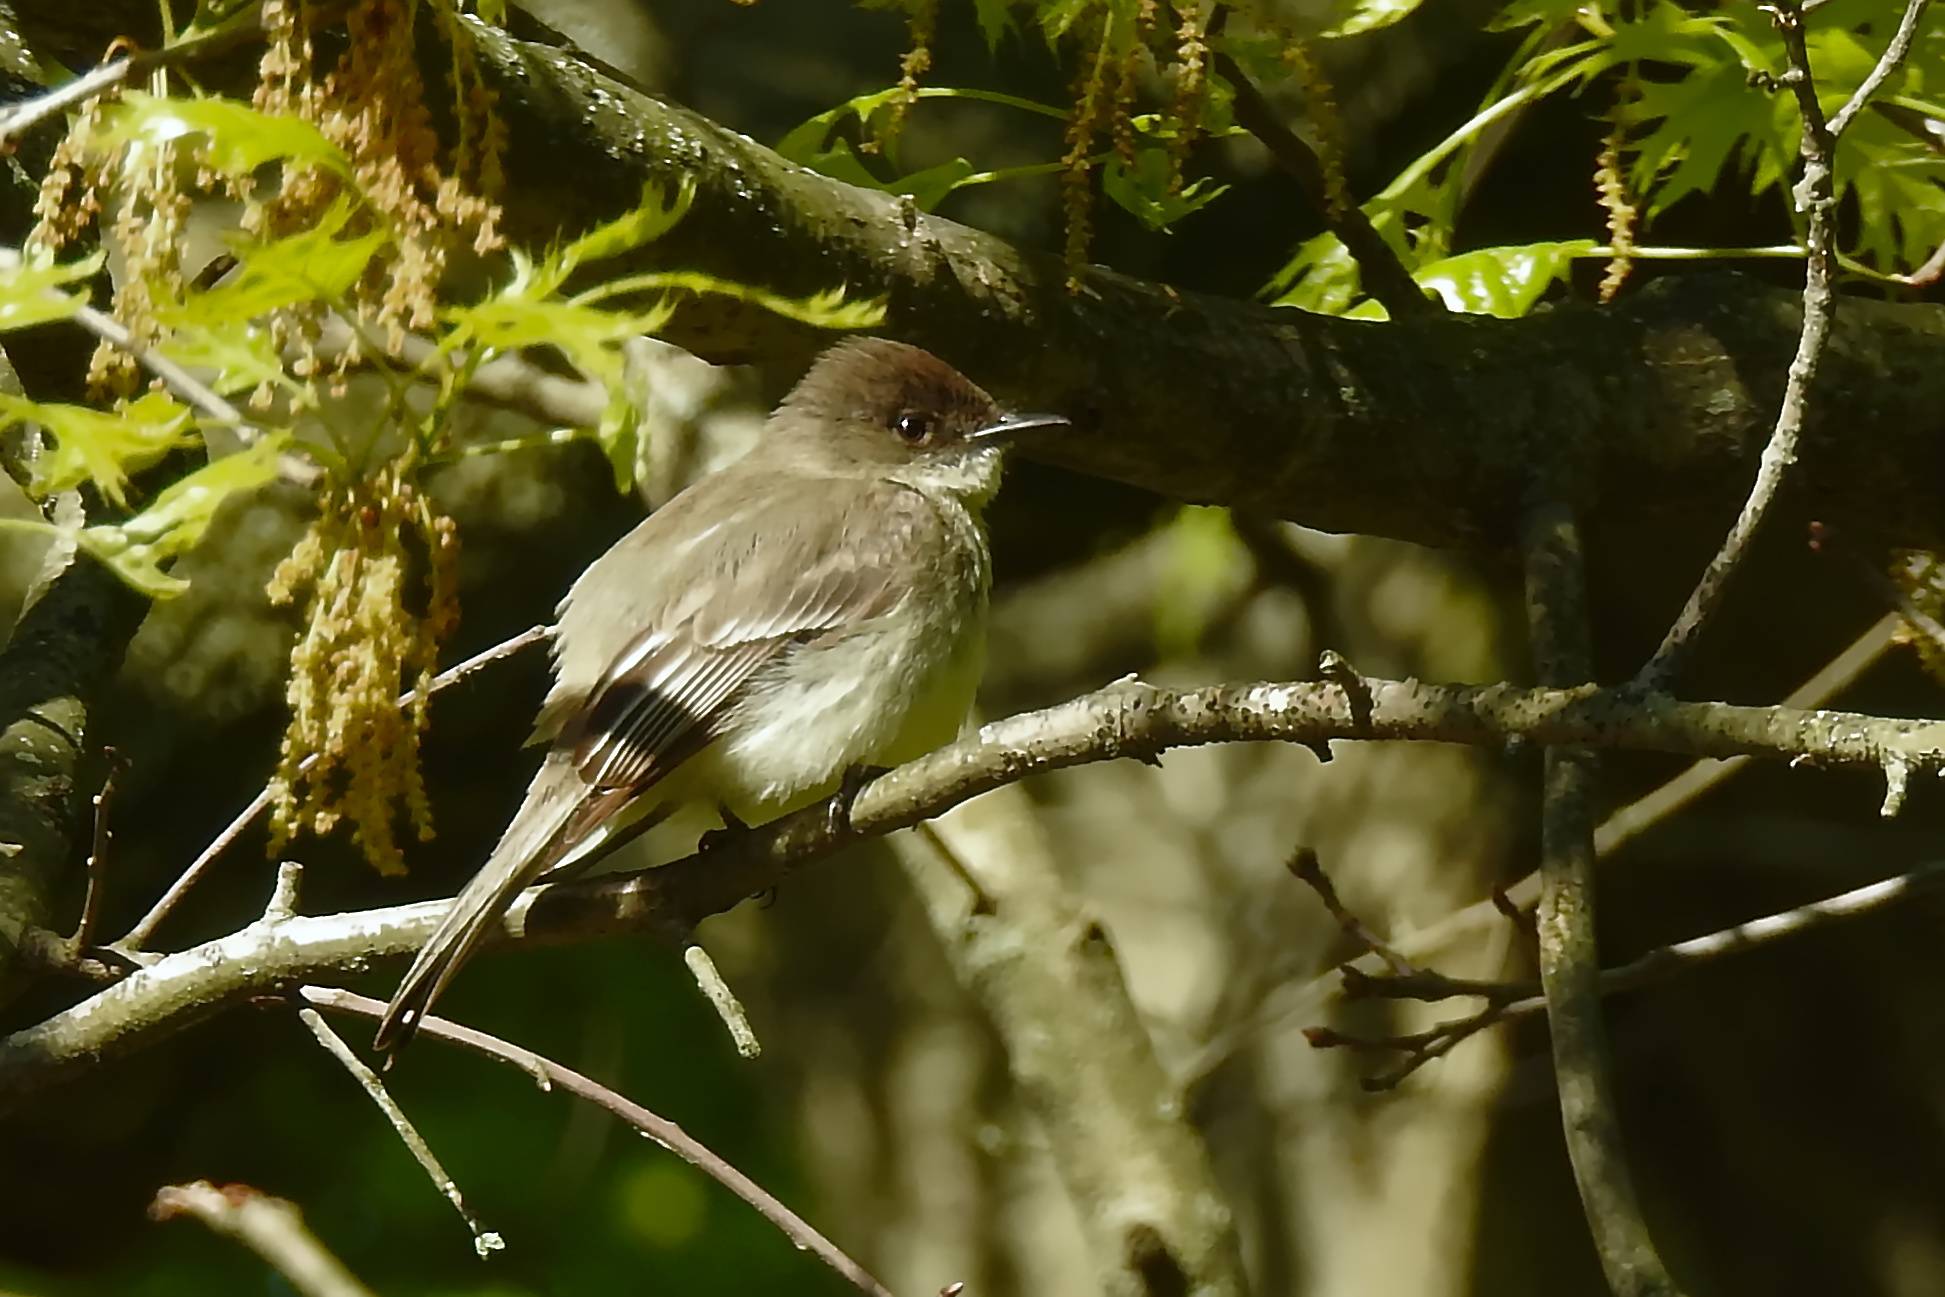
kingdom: Animalia
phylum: Chordata
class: Aves
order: Passeriformes
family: Tyrannidae
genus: Sayornis
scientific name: Sayornis phoebe
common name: Eastern phoebe
